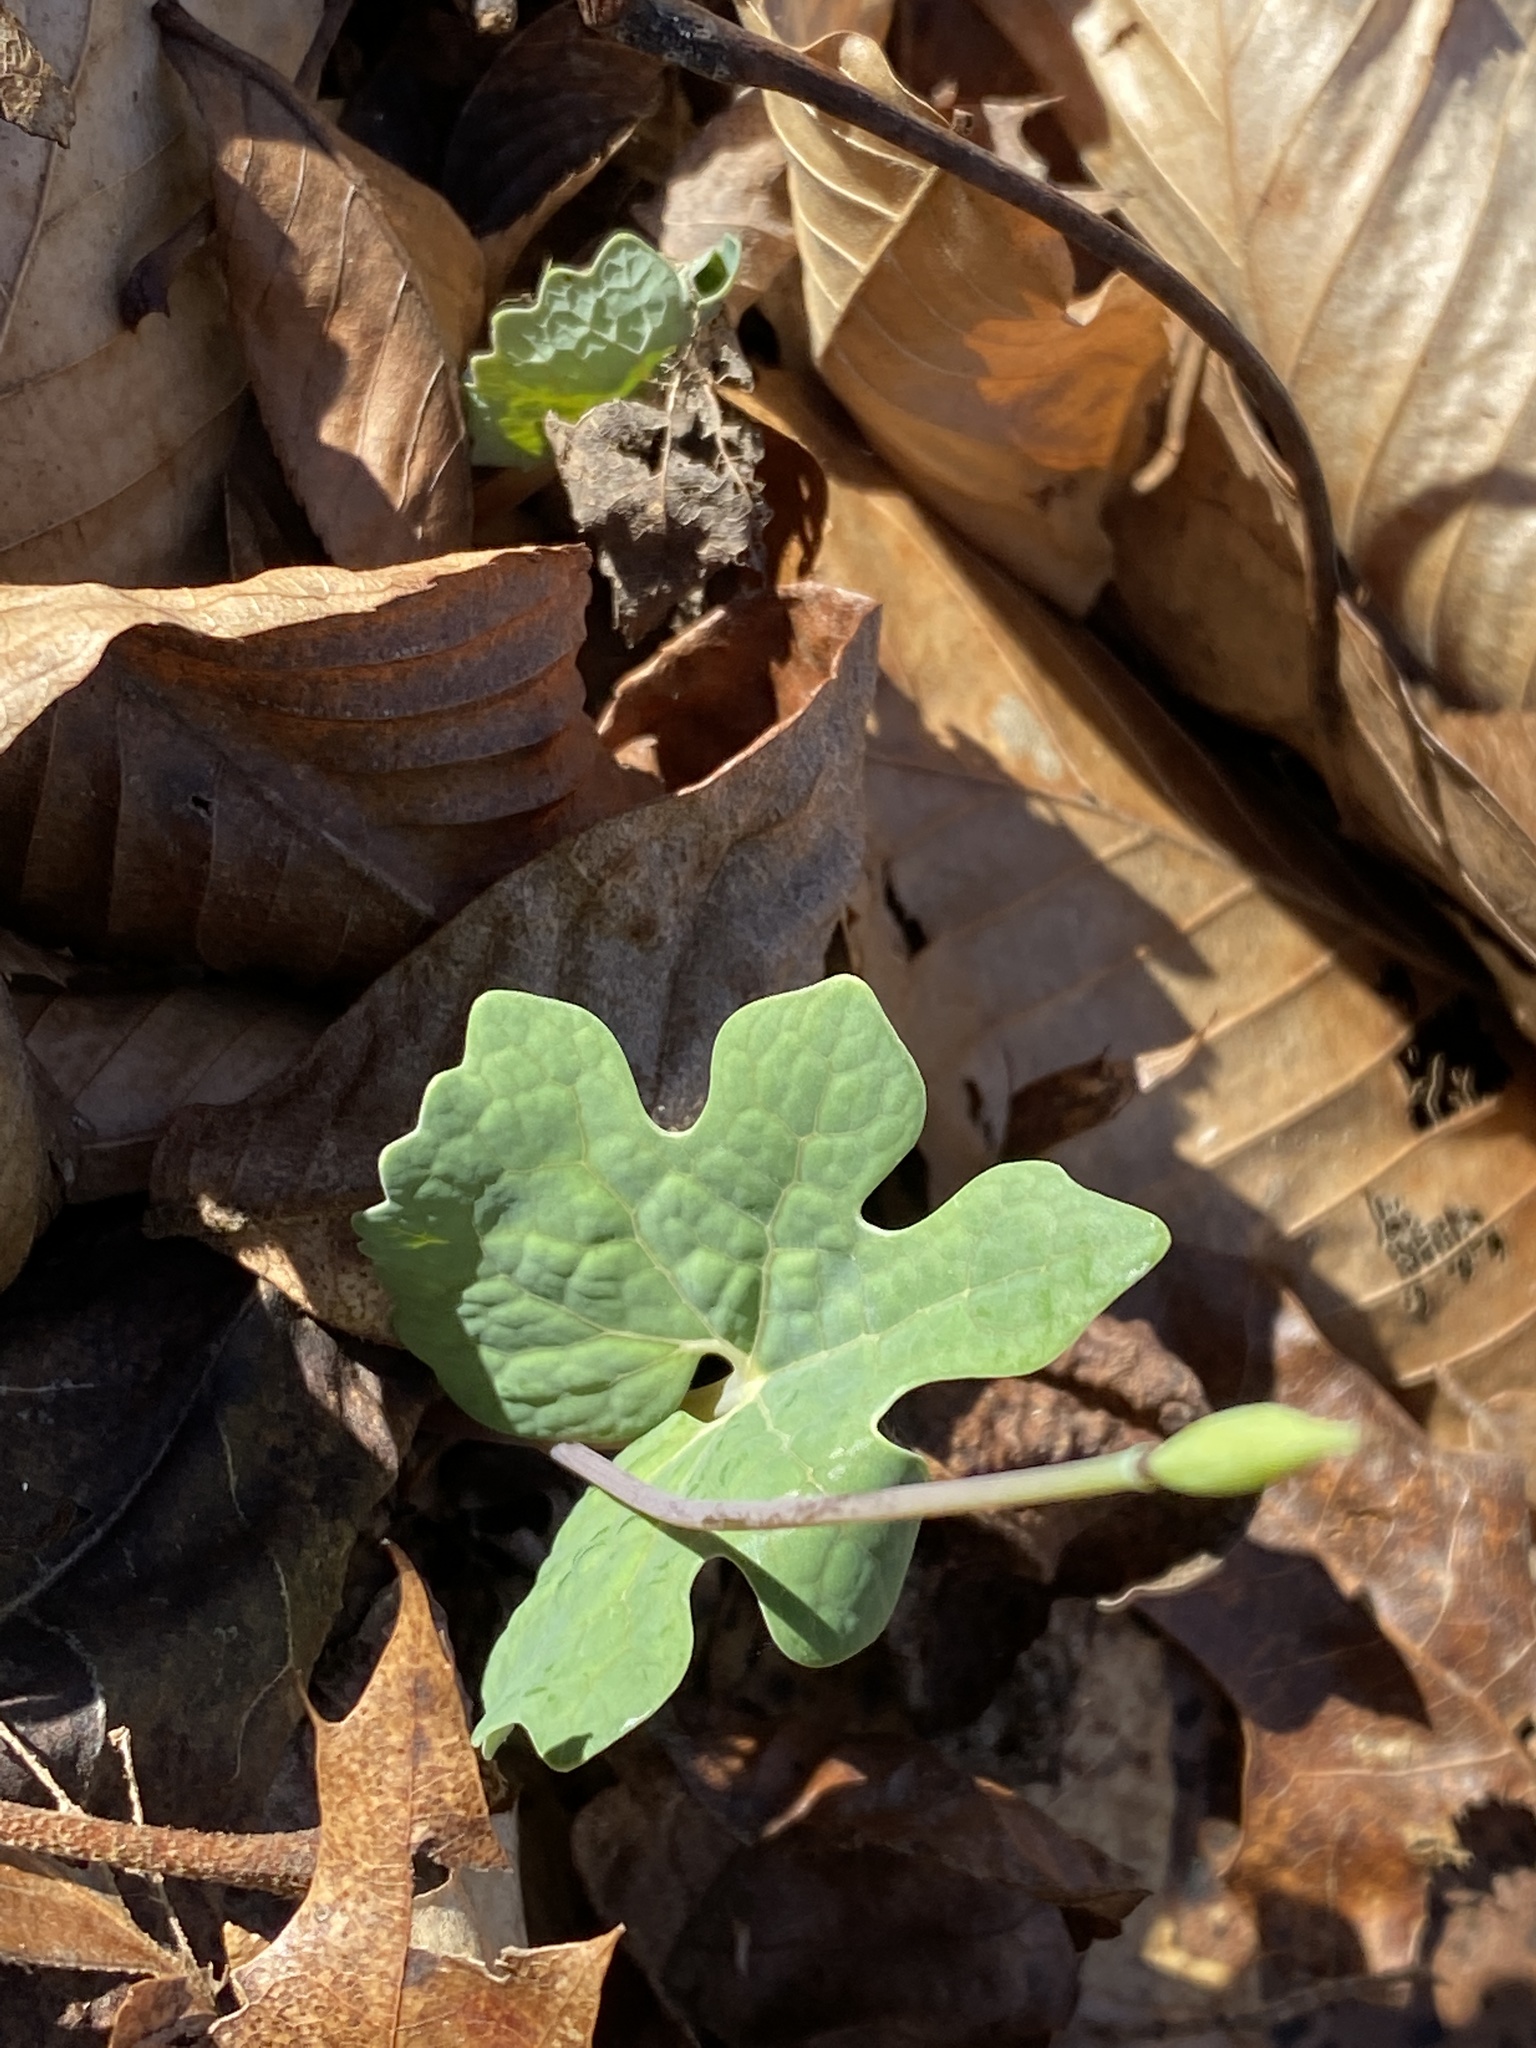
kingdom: Plantae
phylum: Tracheophyta
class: Magnoliopsida
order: Ranunculales
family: Papaveraceae
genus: Sanguinaria
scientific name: Sanguinaria canadensis
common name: Bloodroot
